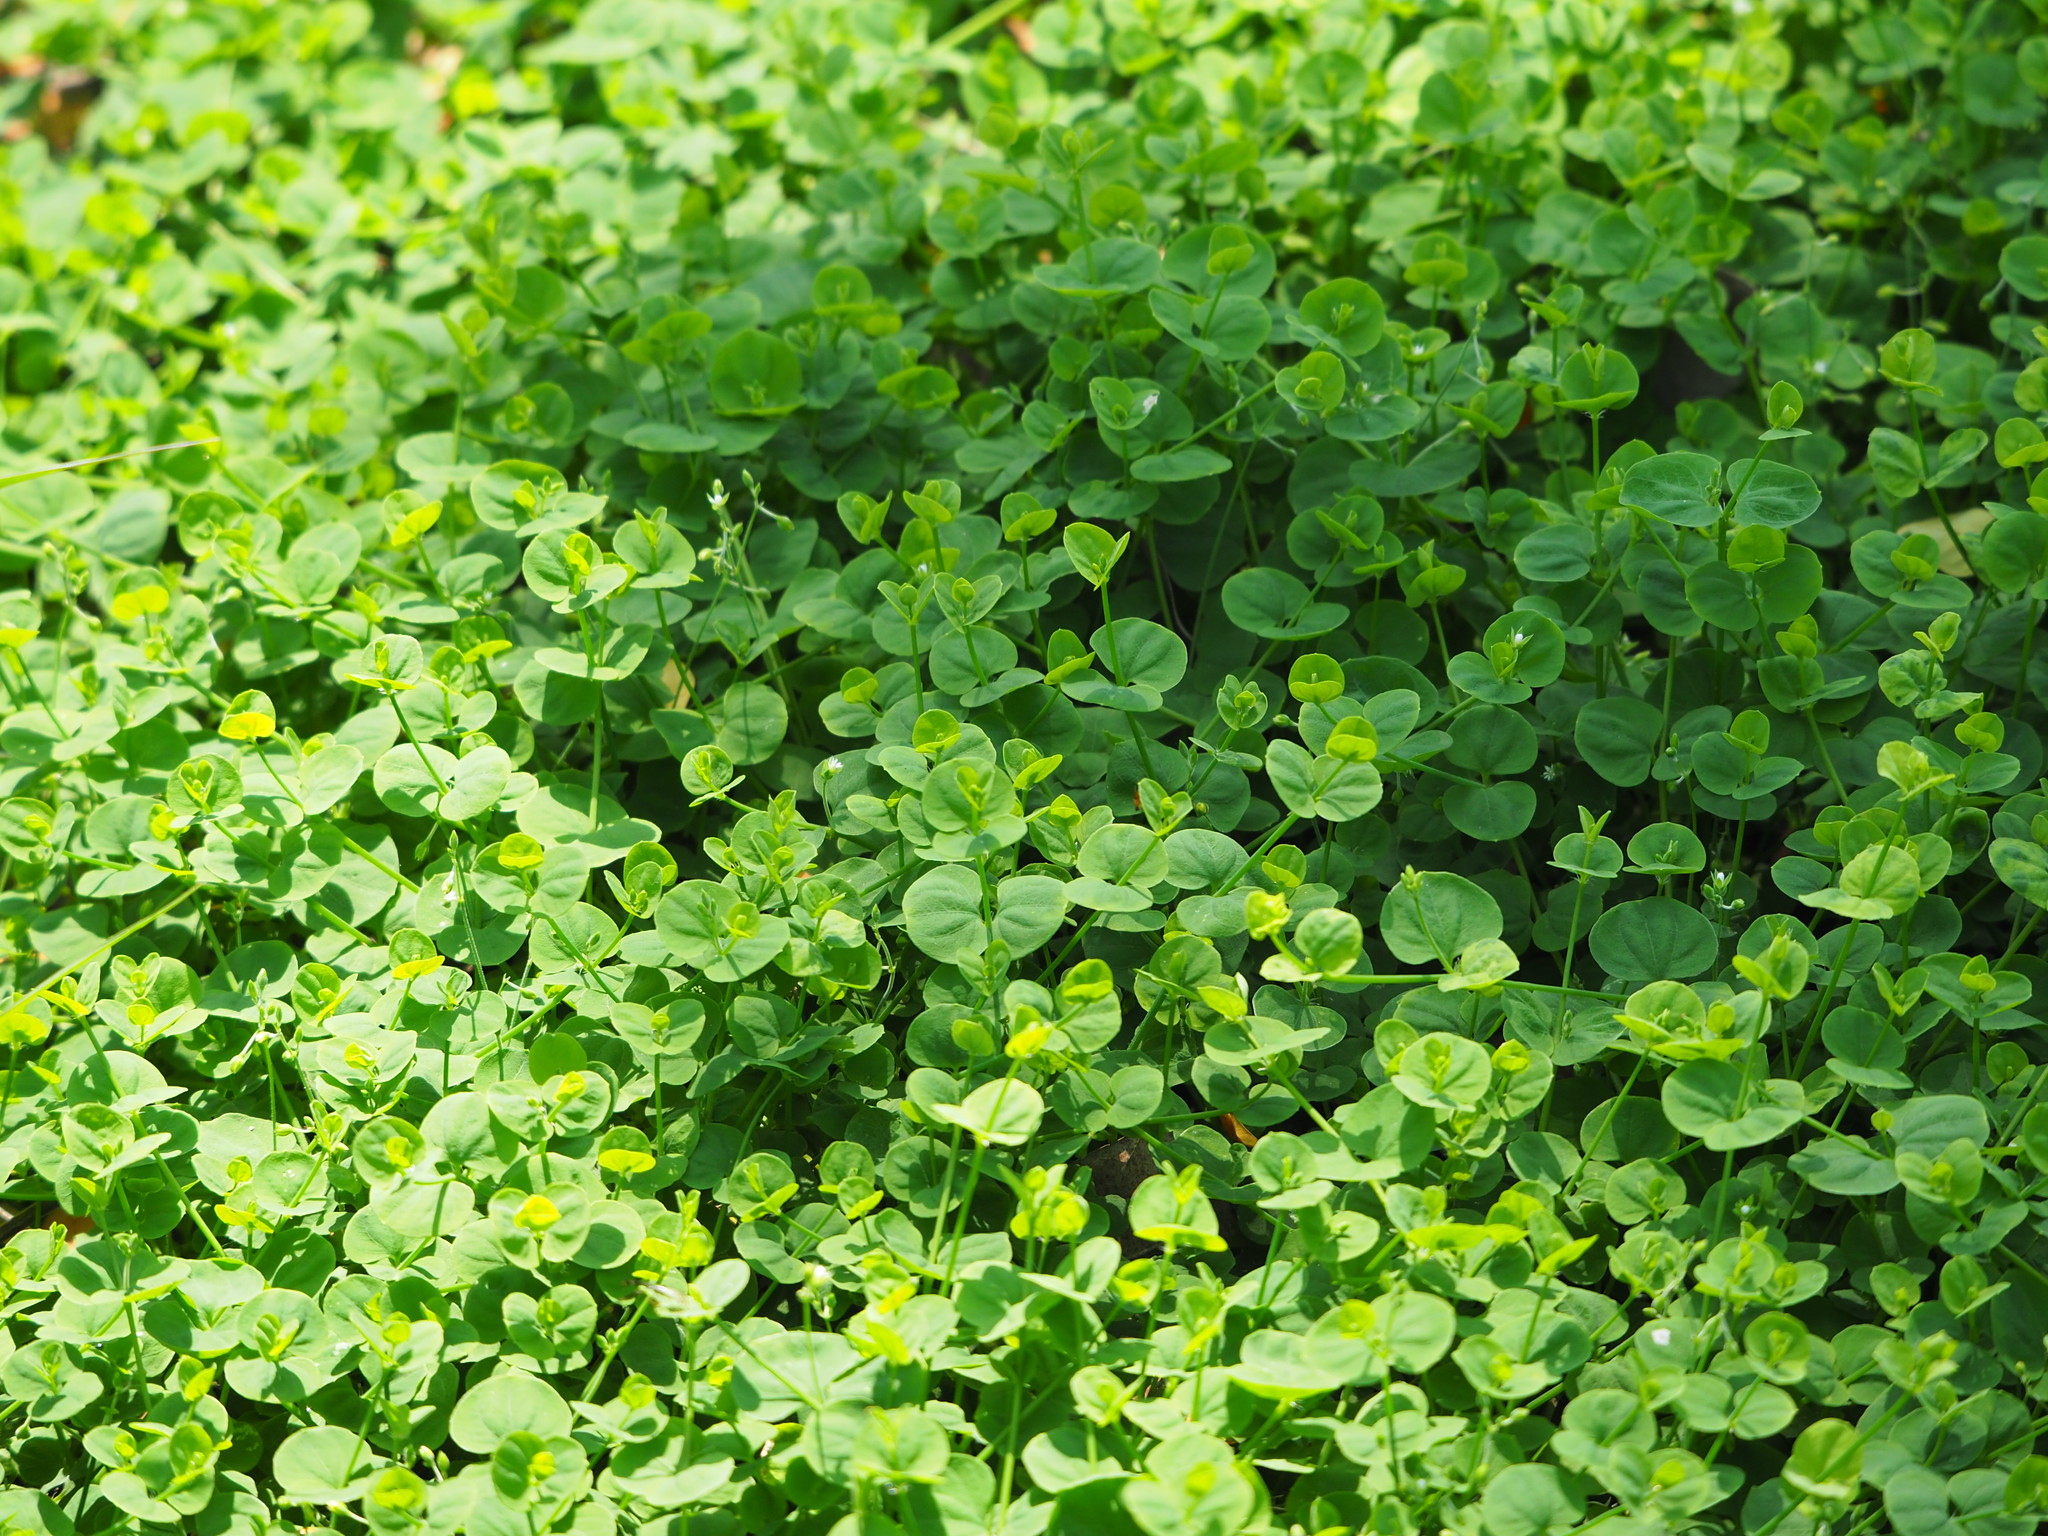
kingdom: Plantae
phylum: Tracheophyta
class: Magnoliopsida
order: Caryophyllales
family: Caryophyllaceae
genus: Drymaria
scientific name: Drymaria cordata
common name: Whitesnow
